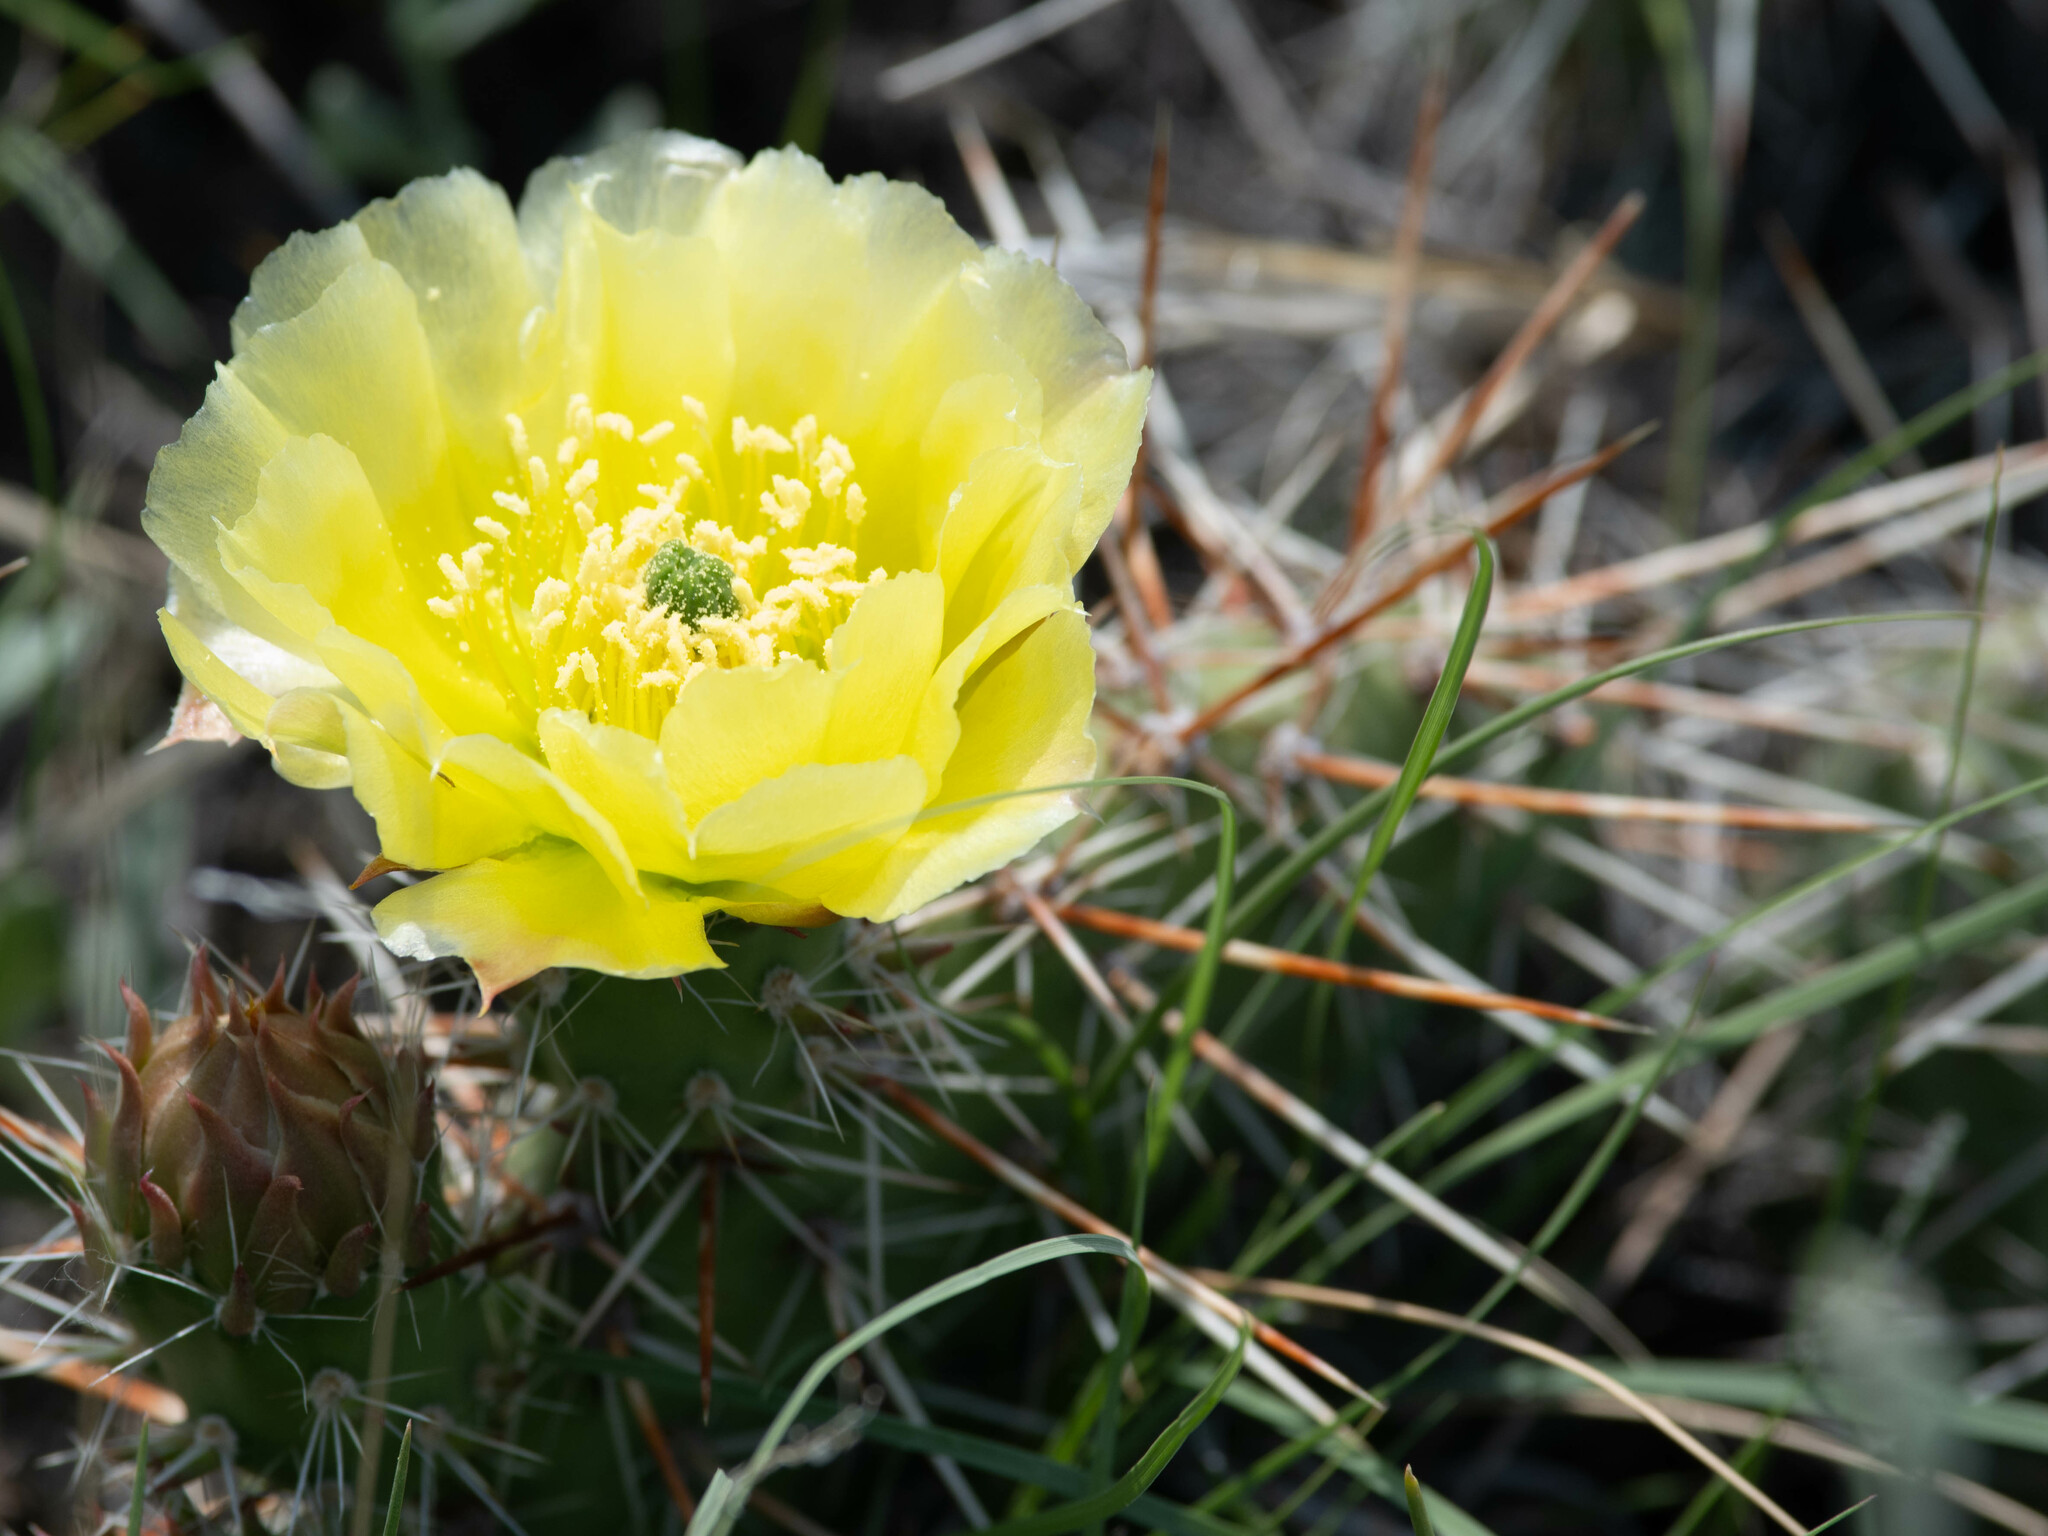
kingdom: Plantae
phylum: Tracheophyta
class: Magnoliopsida
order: Caryophyllales
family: Cactaceae
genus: Opuntia
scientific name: Opuntia polyacantha
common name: Plains prickly-pear
